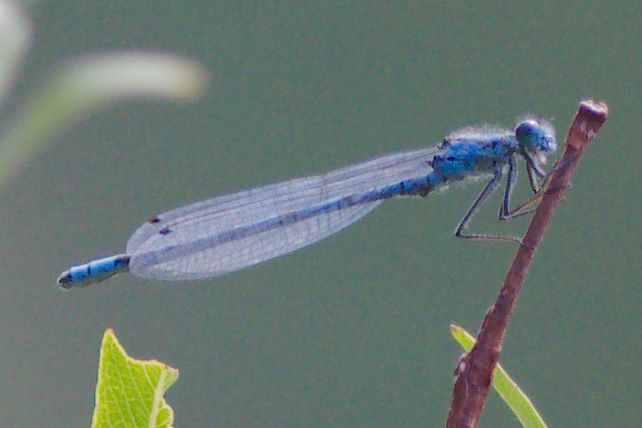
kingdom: Animalia
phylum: Arthropoda
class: Insecta
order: Odonata
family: Coenagrionidae
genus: Enallagma
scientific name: Enallagma boreale
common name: Boreal bluet
